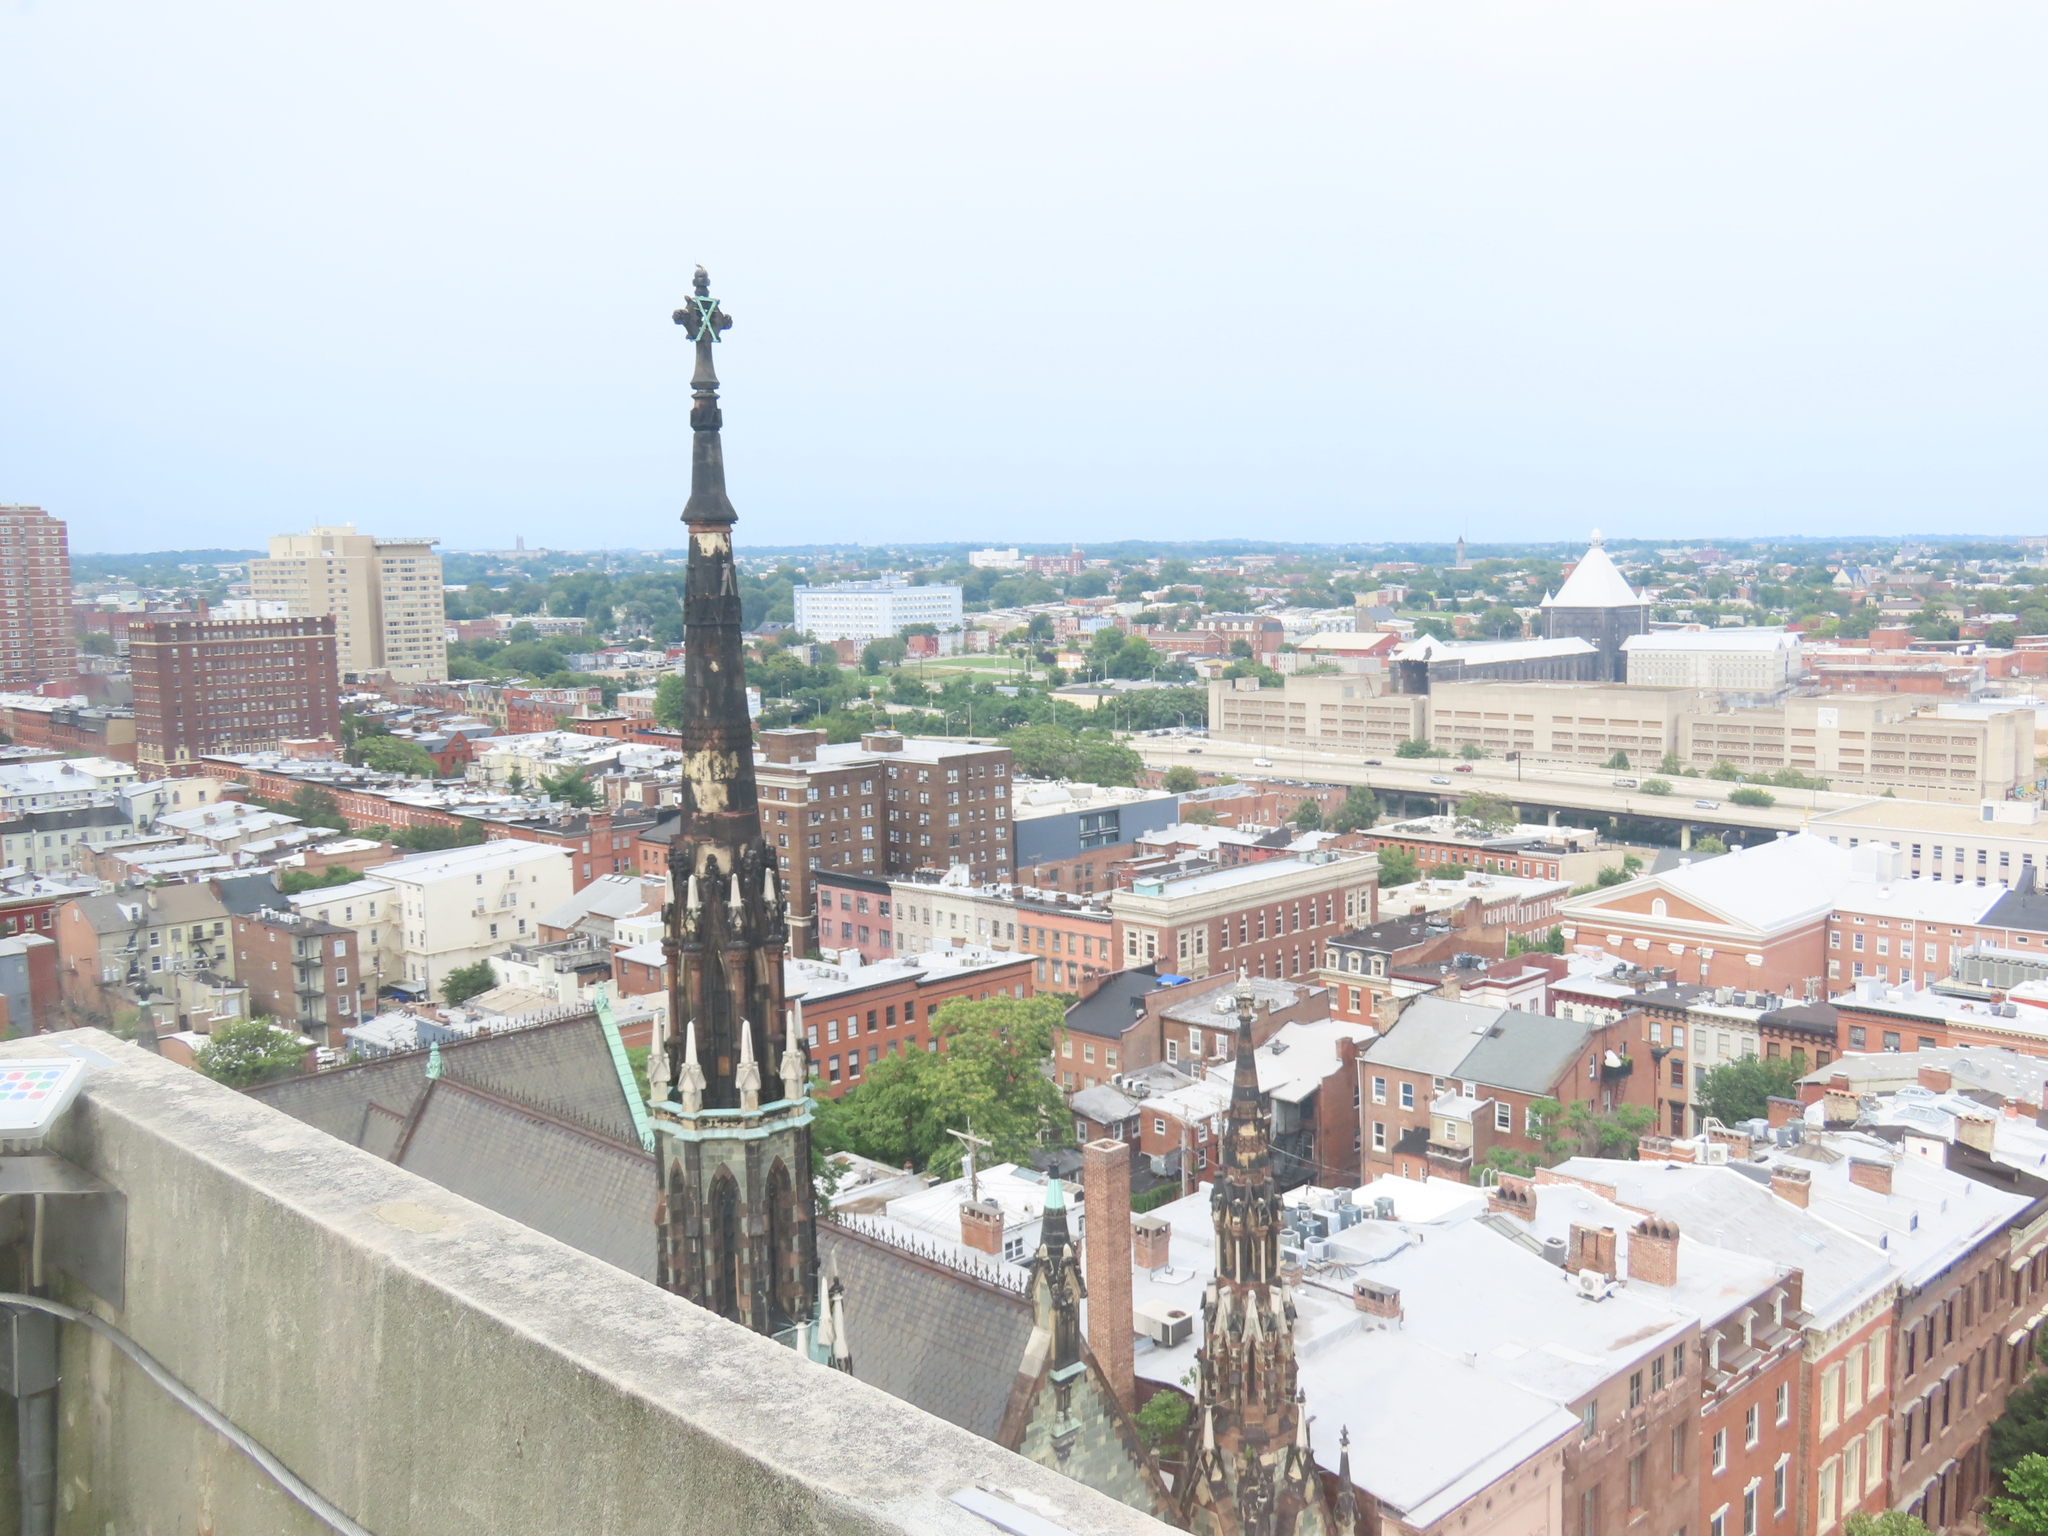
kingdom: Animalia
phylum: Chordata
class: Aves
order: Falconiformes
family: Falconidae
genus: Falco
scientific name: Falco sparverius
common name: American kestrel
